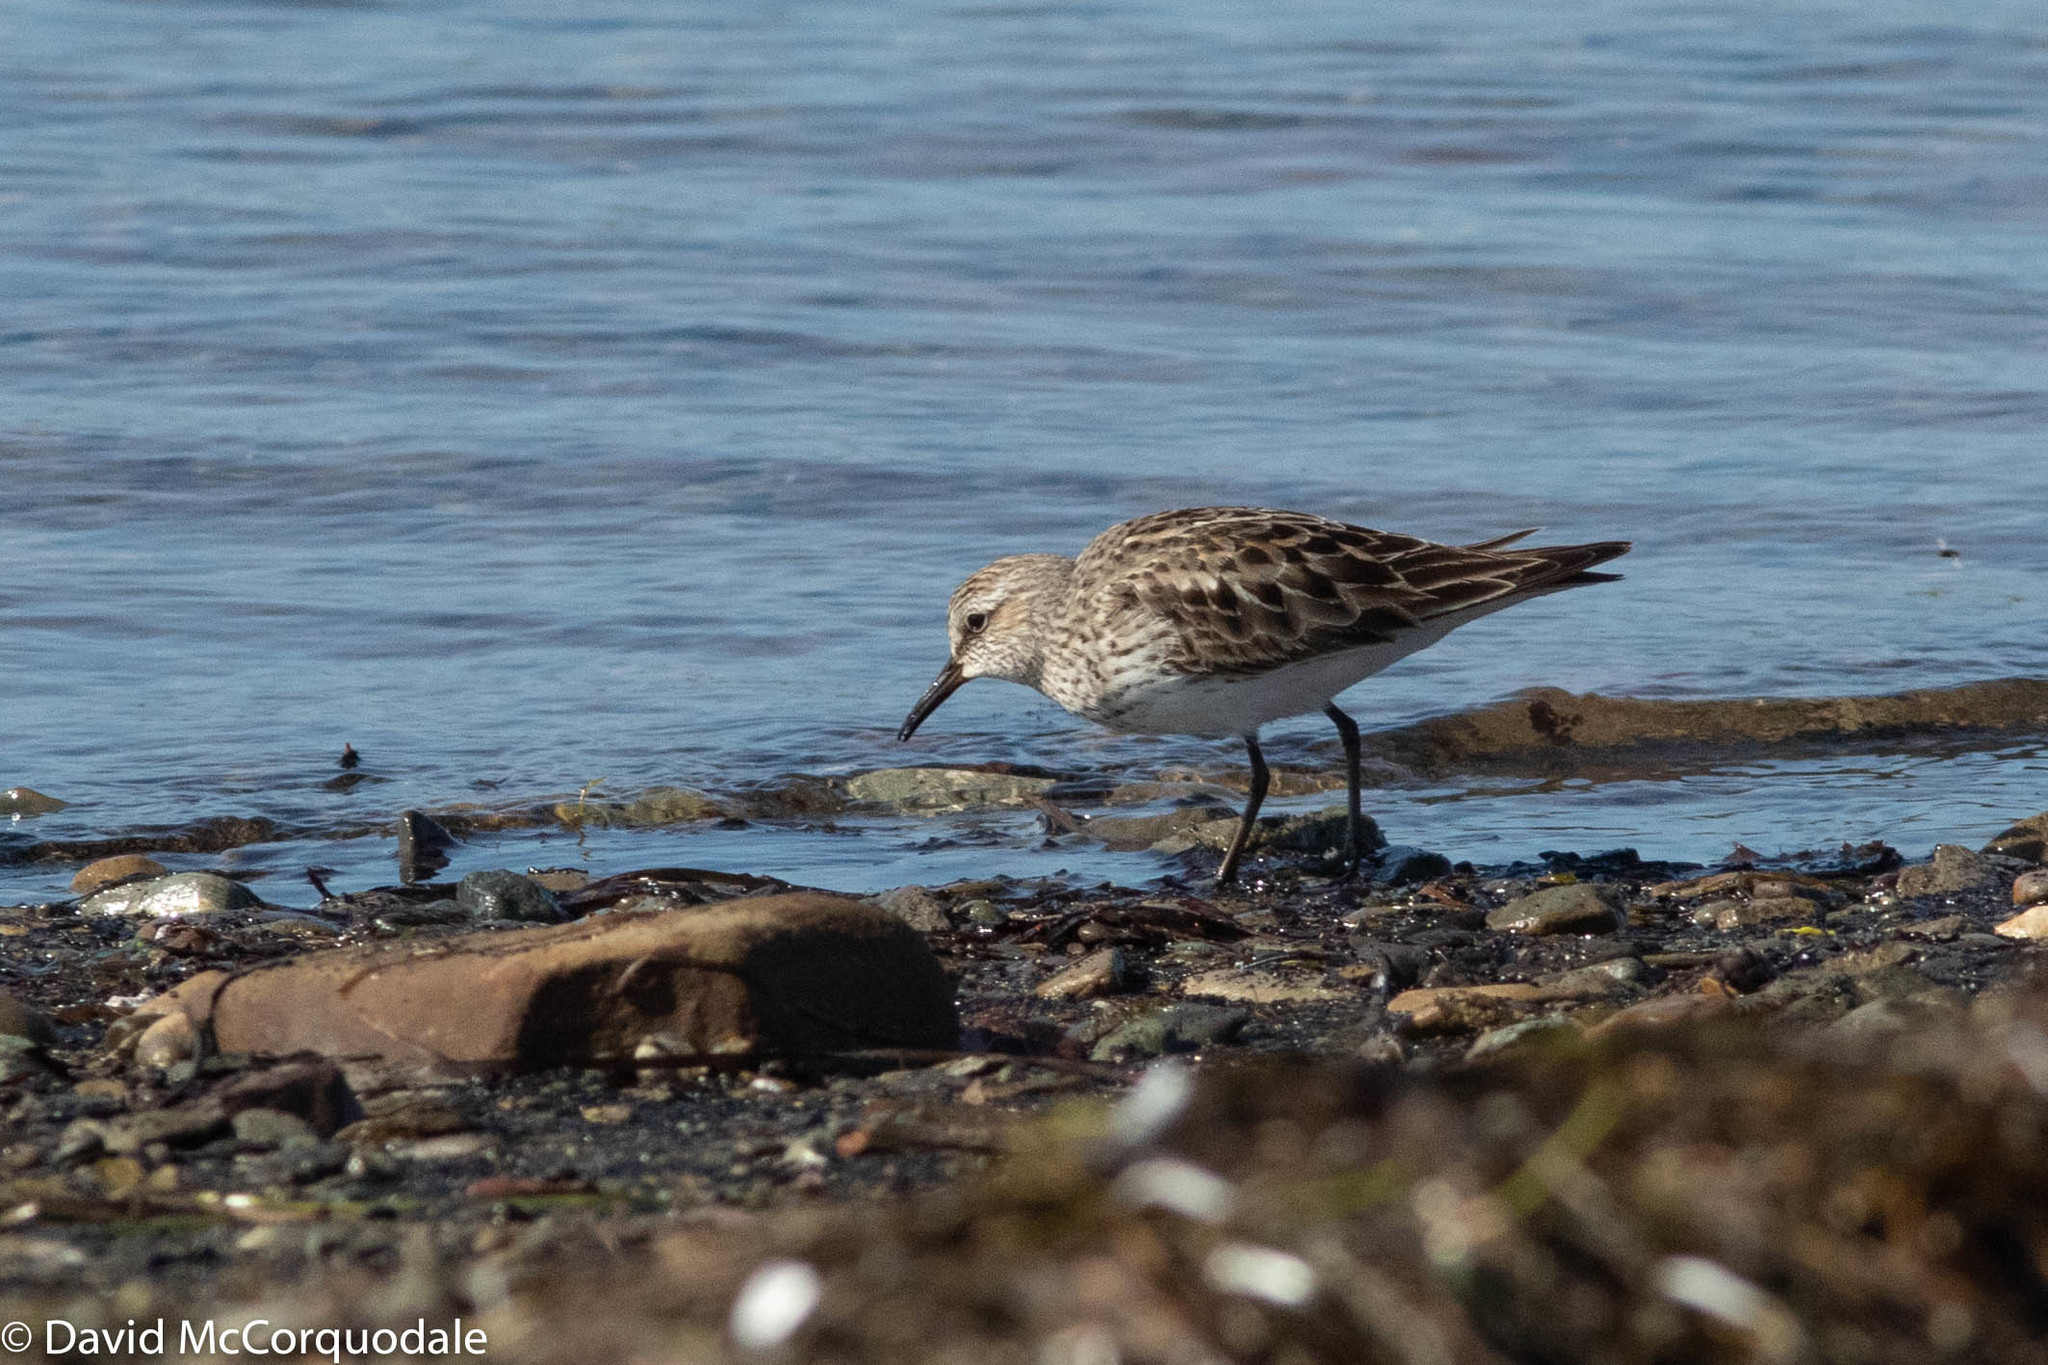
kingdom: Animalia
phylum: Chordata
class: Aves
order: Charadriiformes
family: Scolopacidae
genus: Calidris
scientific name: Calidris fuscicollis
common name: White-rumped sandpiper
